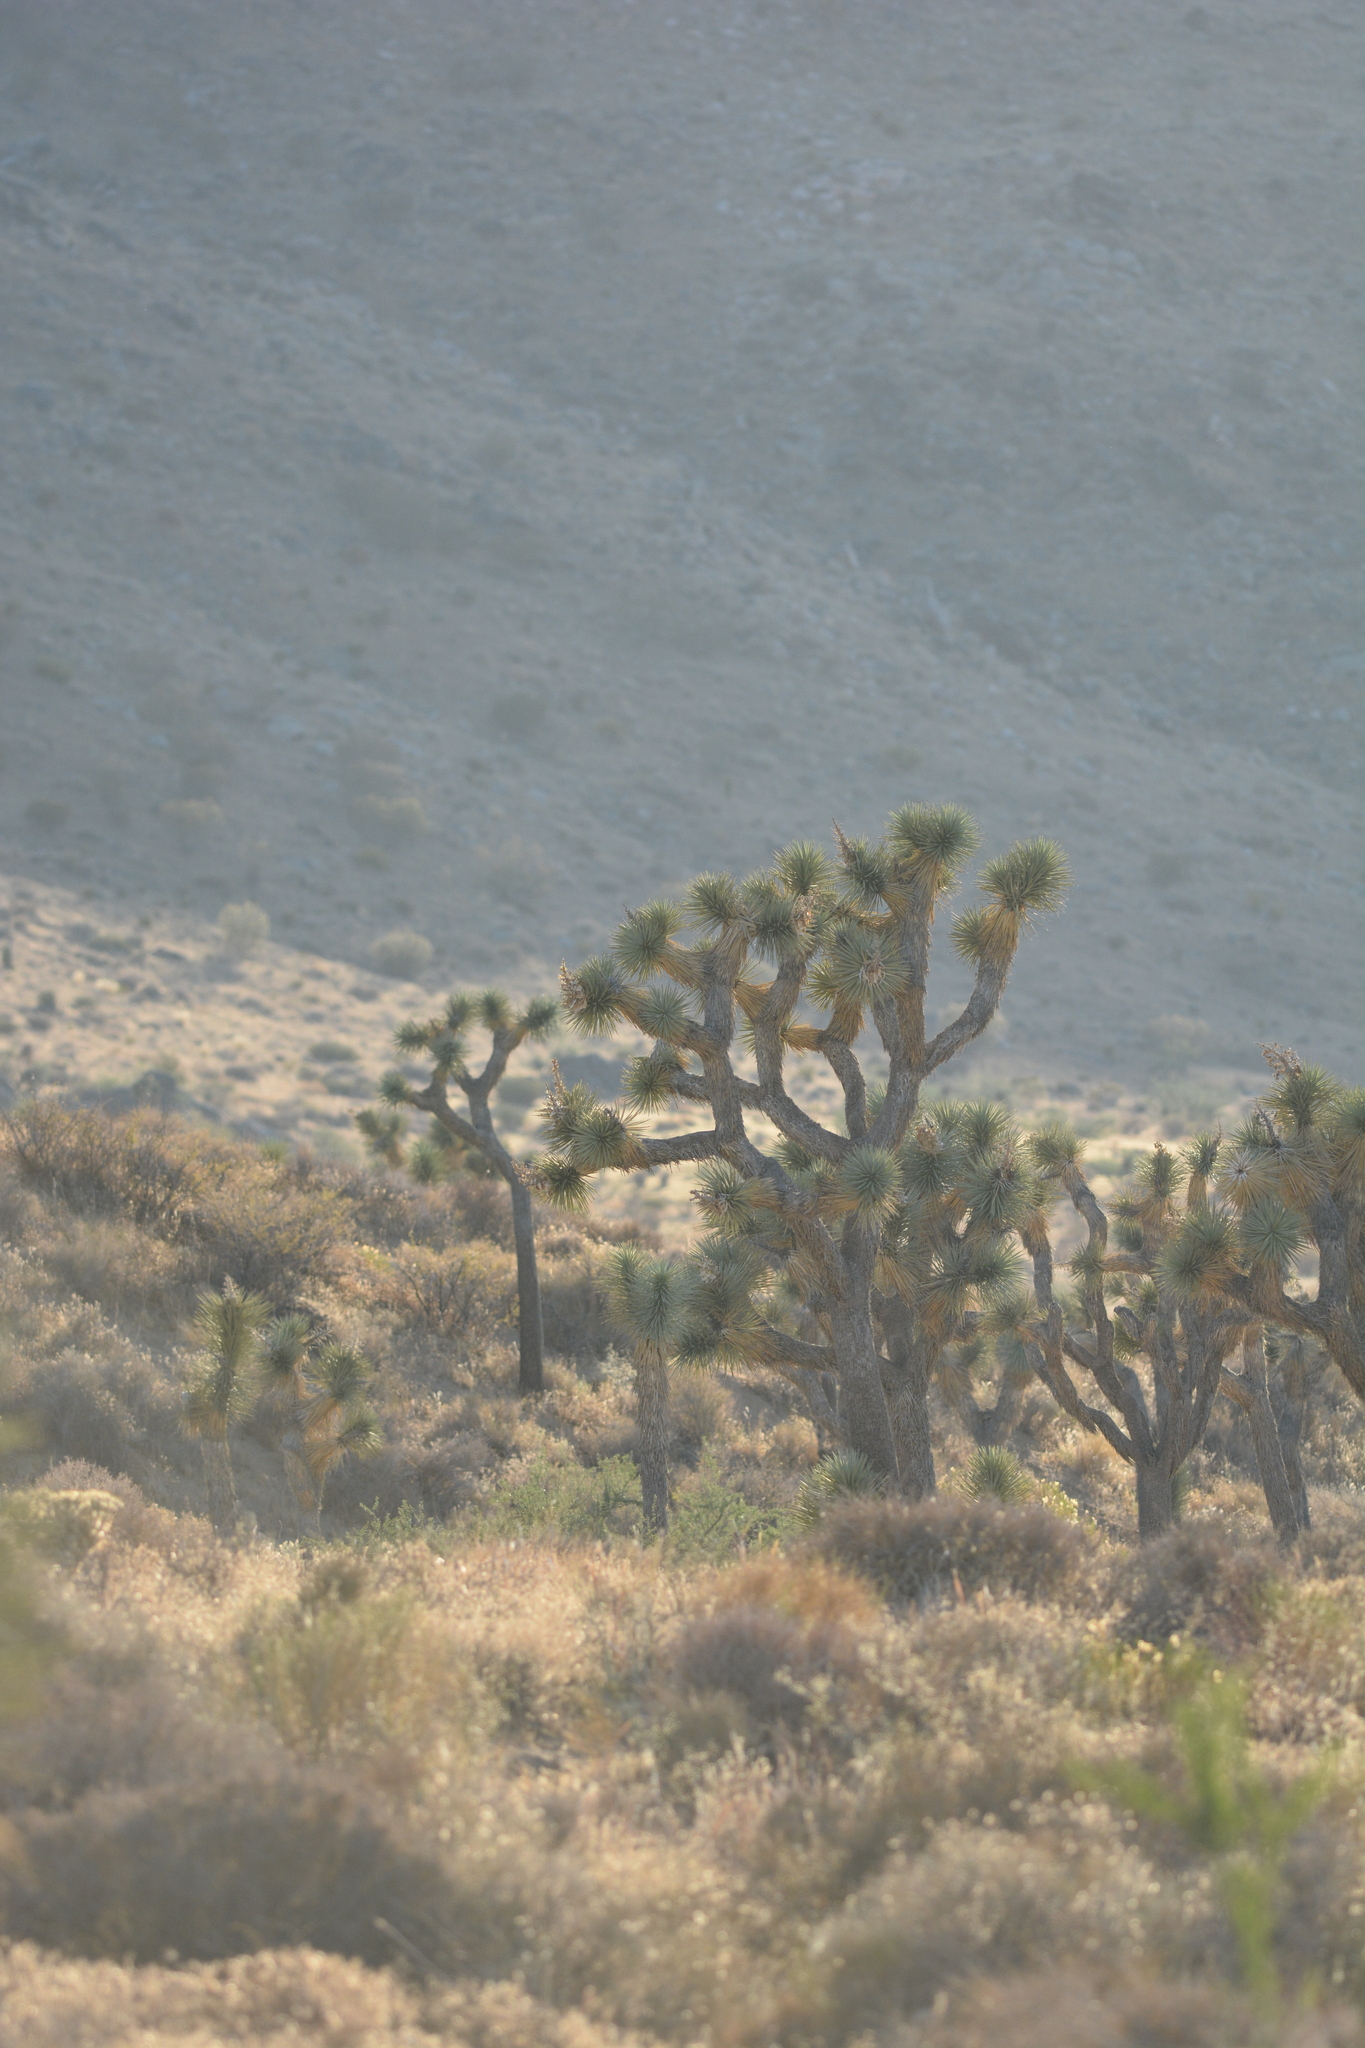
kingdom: Plantae
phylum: Tracheophyta
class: Liliopsida
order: Asparagales
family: Asparagaceae
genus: Yucca
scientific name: Yucca brevifolia
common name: Joshua tree
